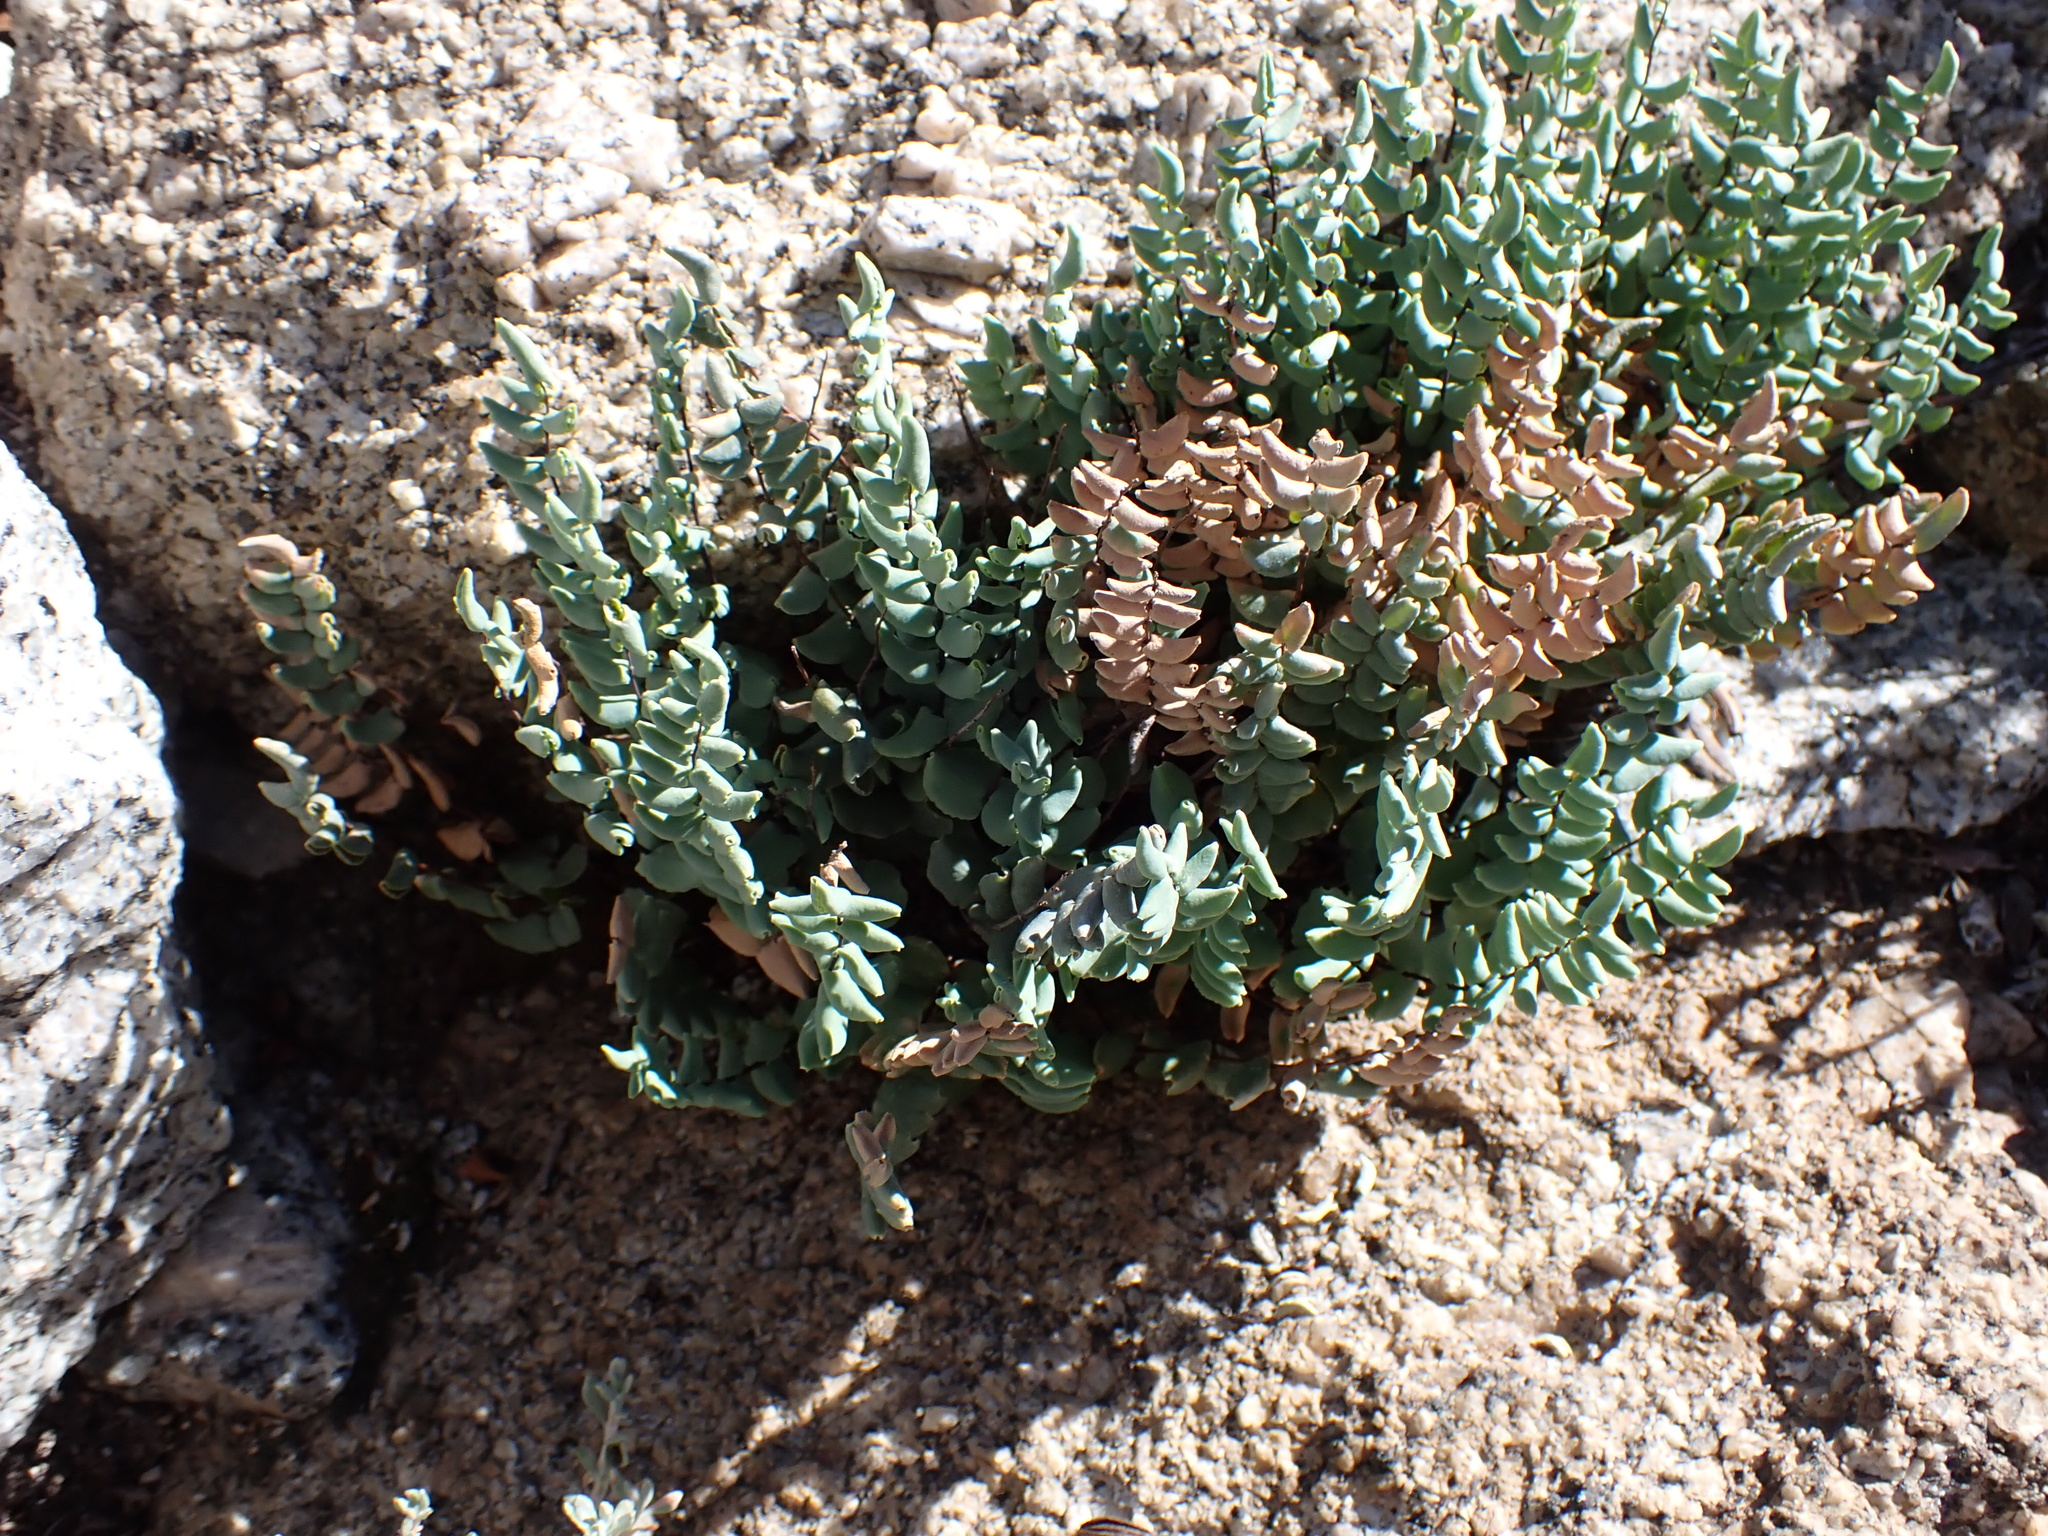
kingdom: Plantae
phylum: Tracheophyta
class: Polypodiopsida
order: Polypodiales
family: Pteridaceae
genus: Pellaea
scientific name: Pellaea bridgesii
